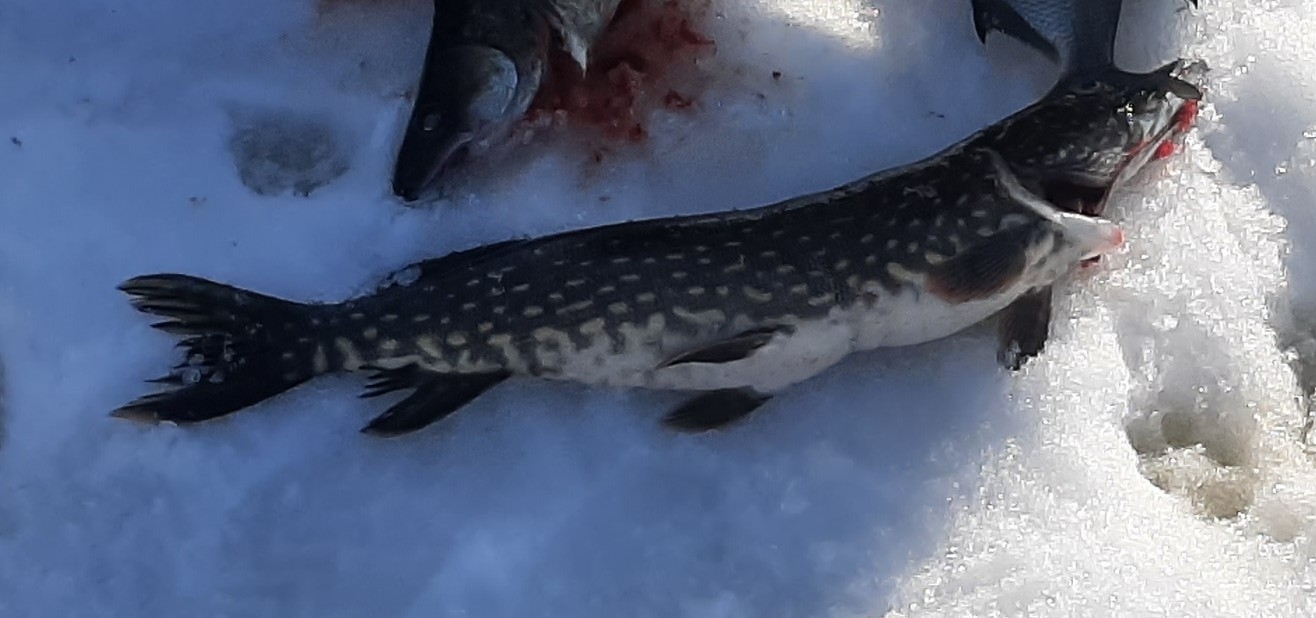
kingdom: Animalia
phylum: Chordata
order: Esociformes
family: Esocidae
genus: Esox
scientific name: Esox lucius
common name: Northern pike
